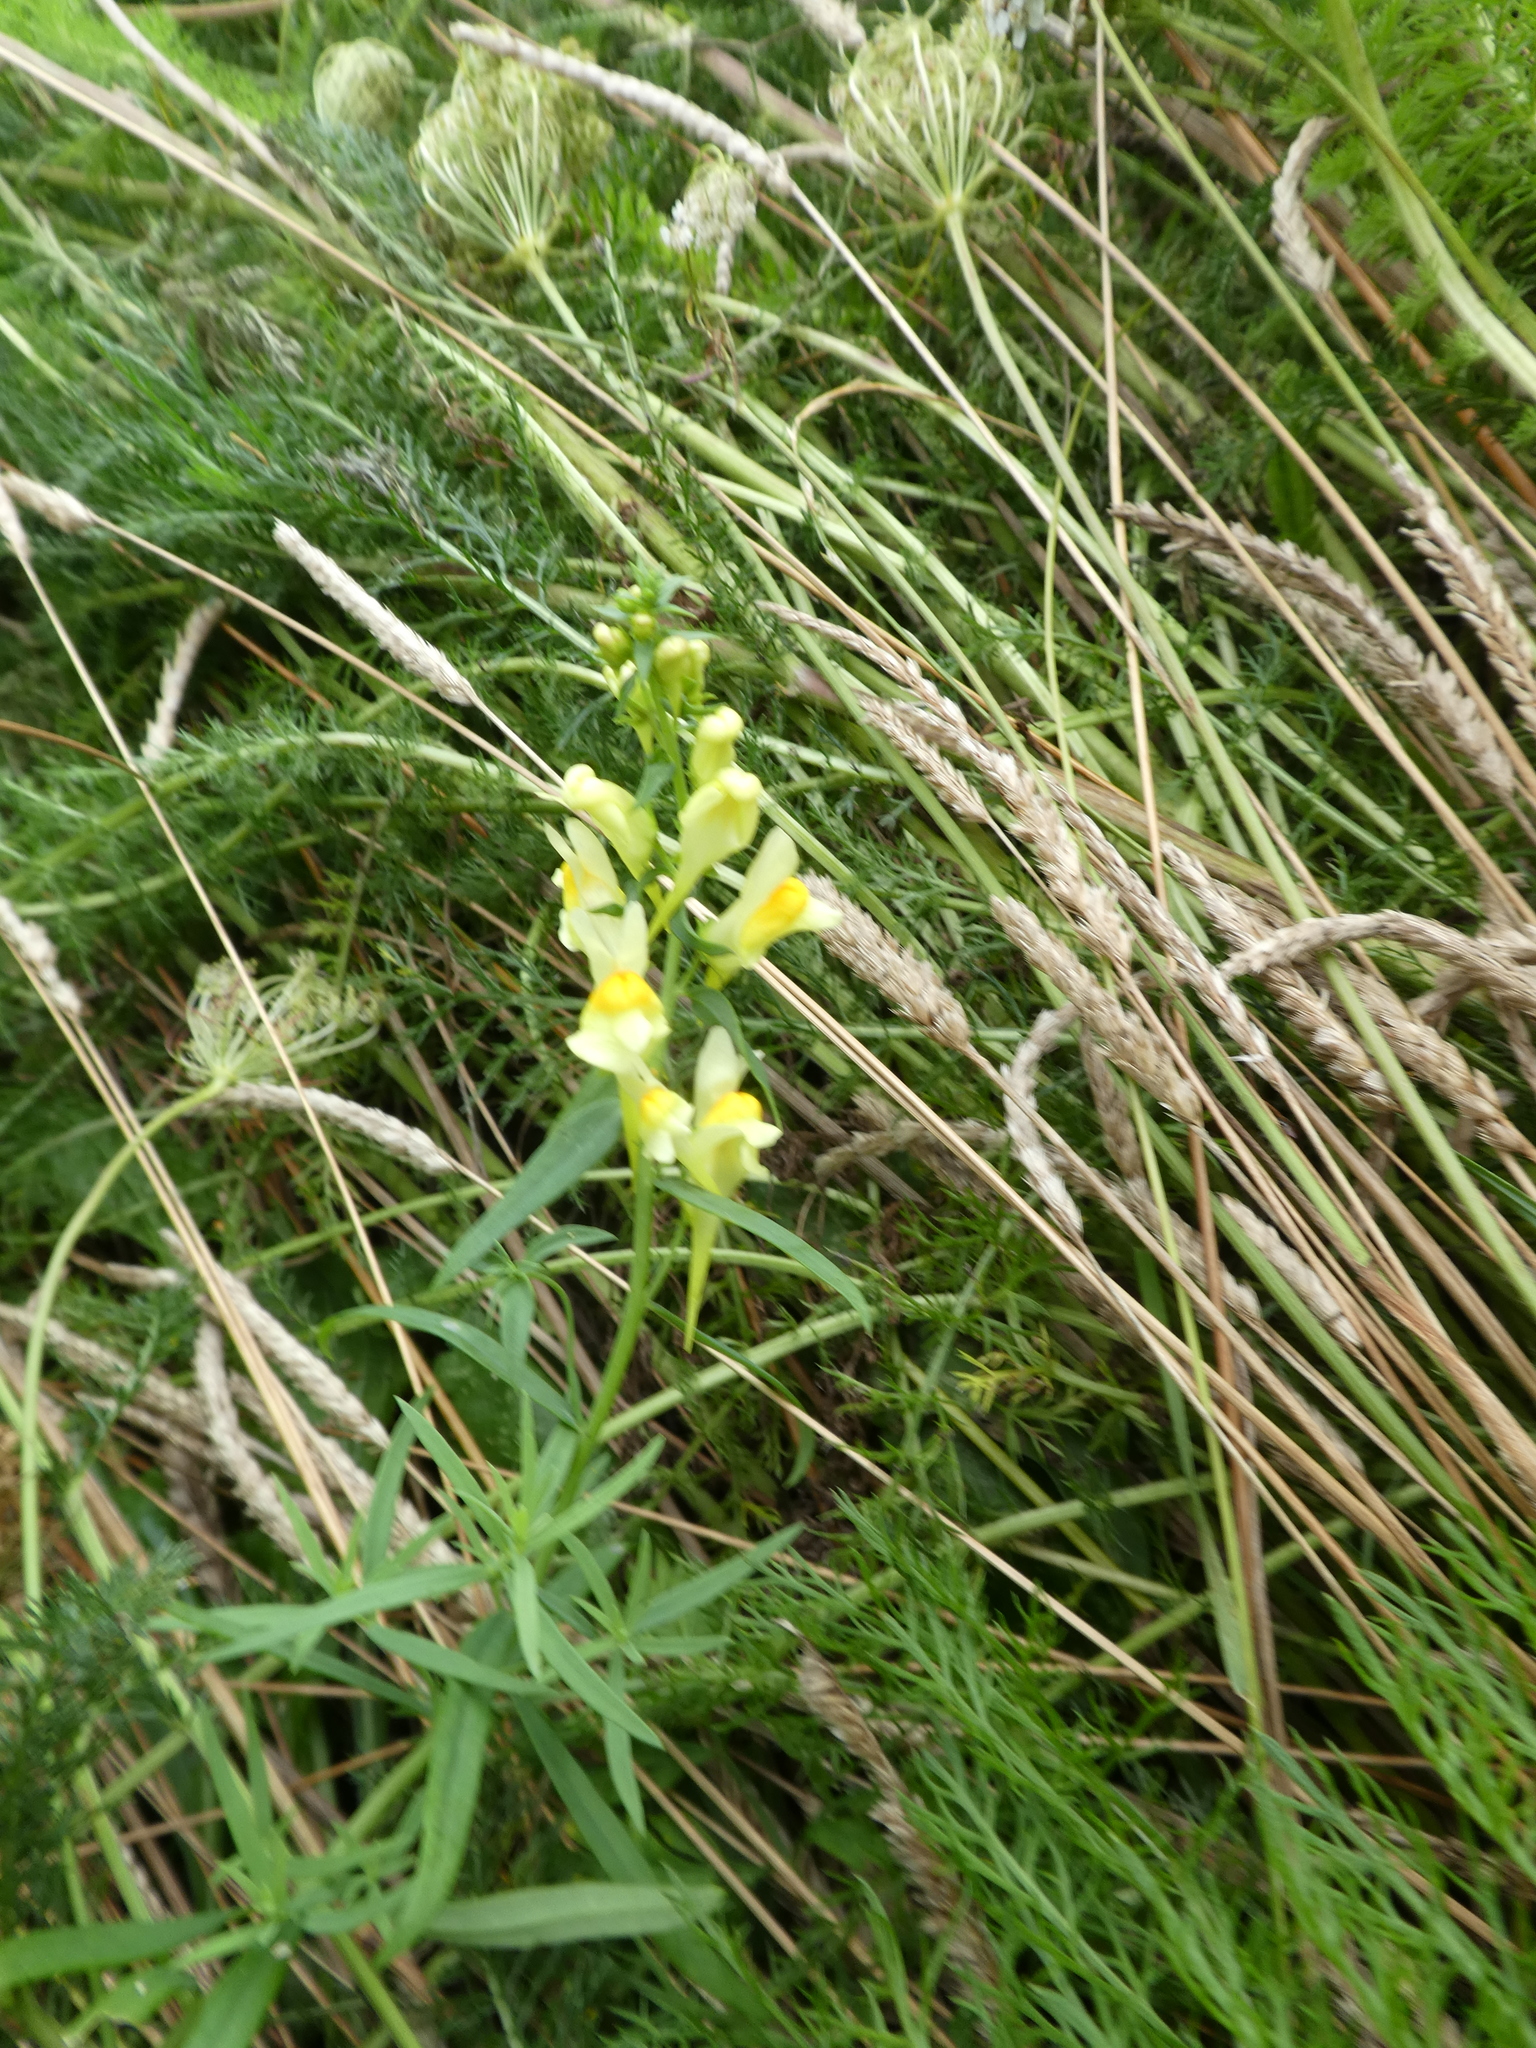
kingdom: Plantae
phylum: Tracheophyta
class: Magnoliopsida
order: Lamiales
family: Plantaginaceae
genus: Linaria
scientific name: Linaria vulgaris
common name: Butter and eggs
